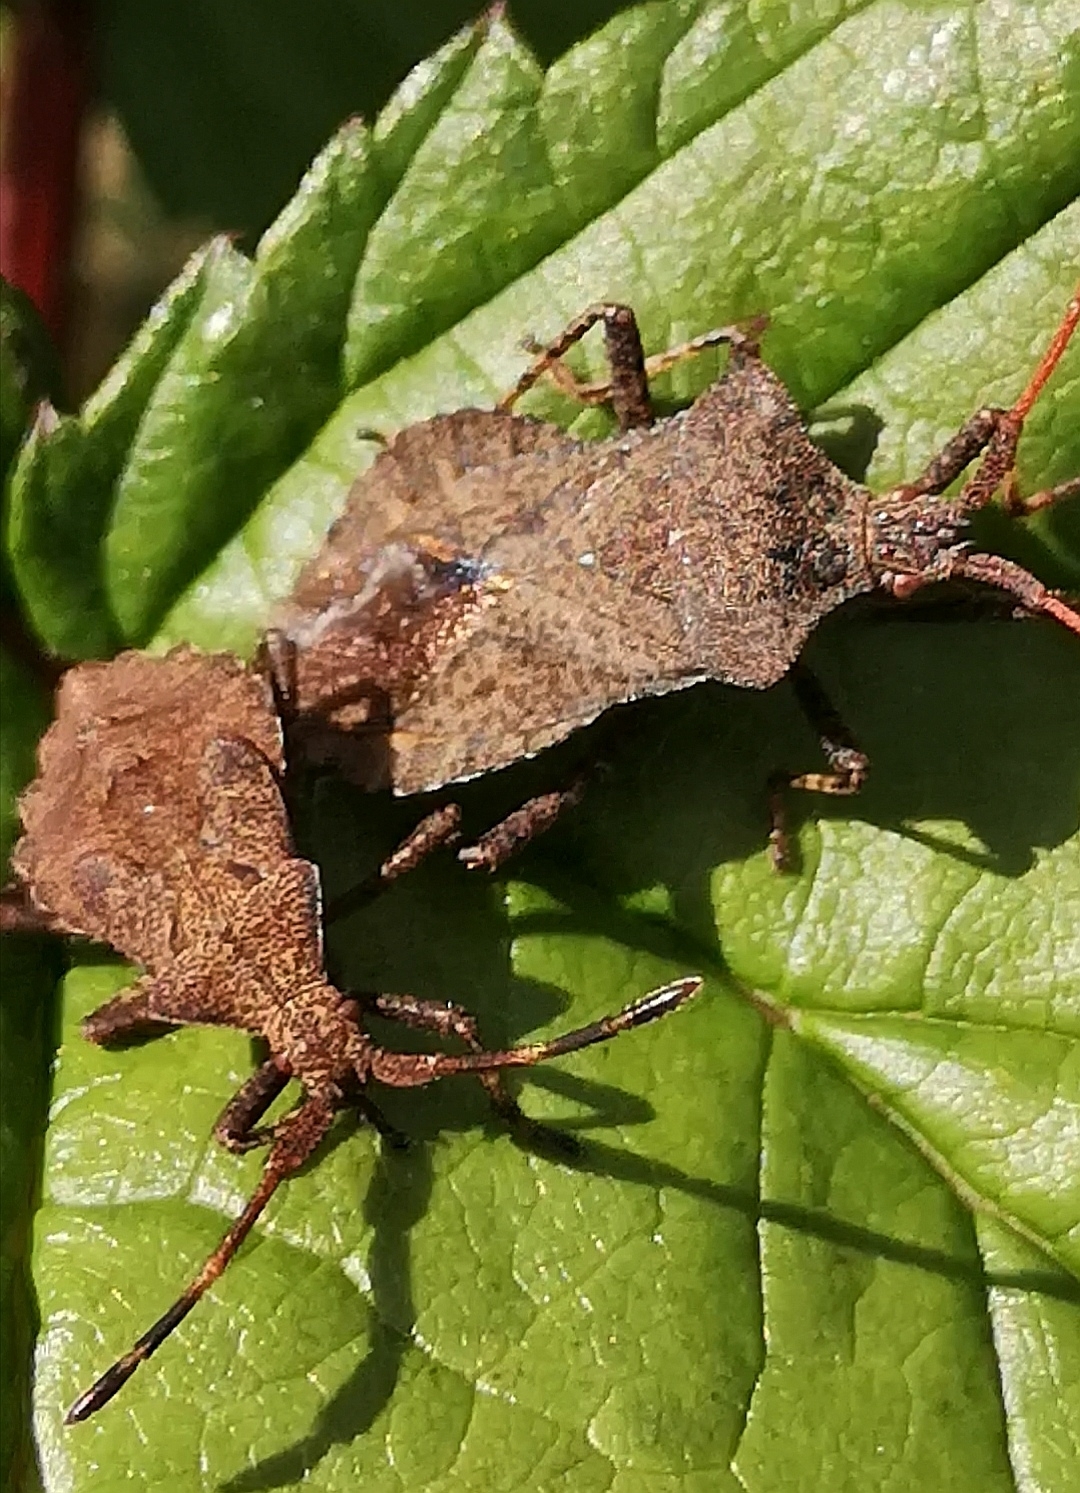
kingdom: Animalia
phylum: Arthropoda
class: Insecta
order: Hemiptera
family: Coreidae
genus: Coreus
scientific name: Coreus marginatus
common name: Dock bug
